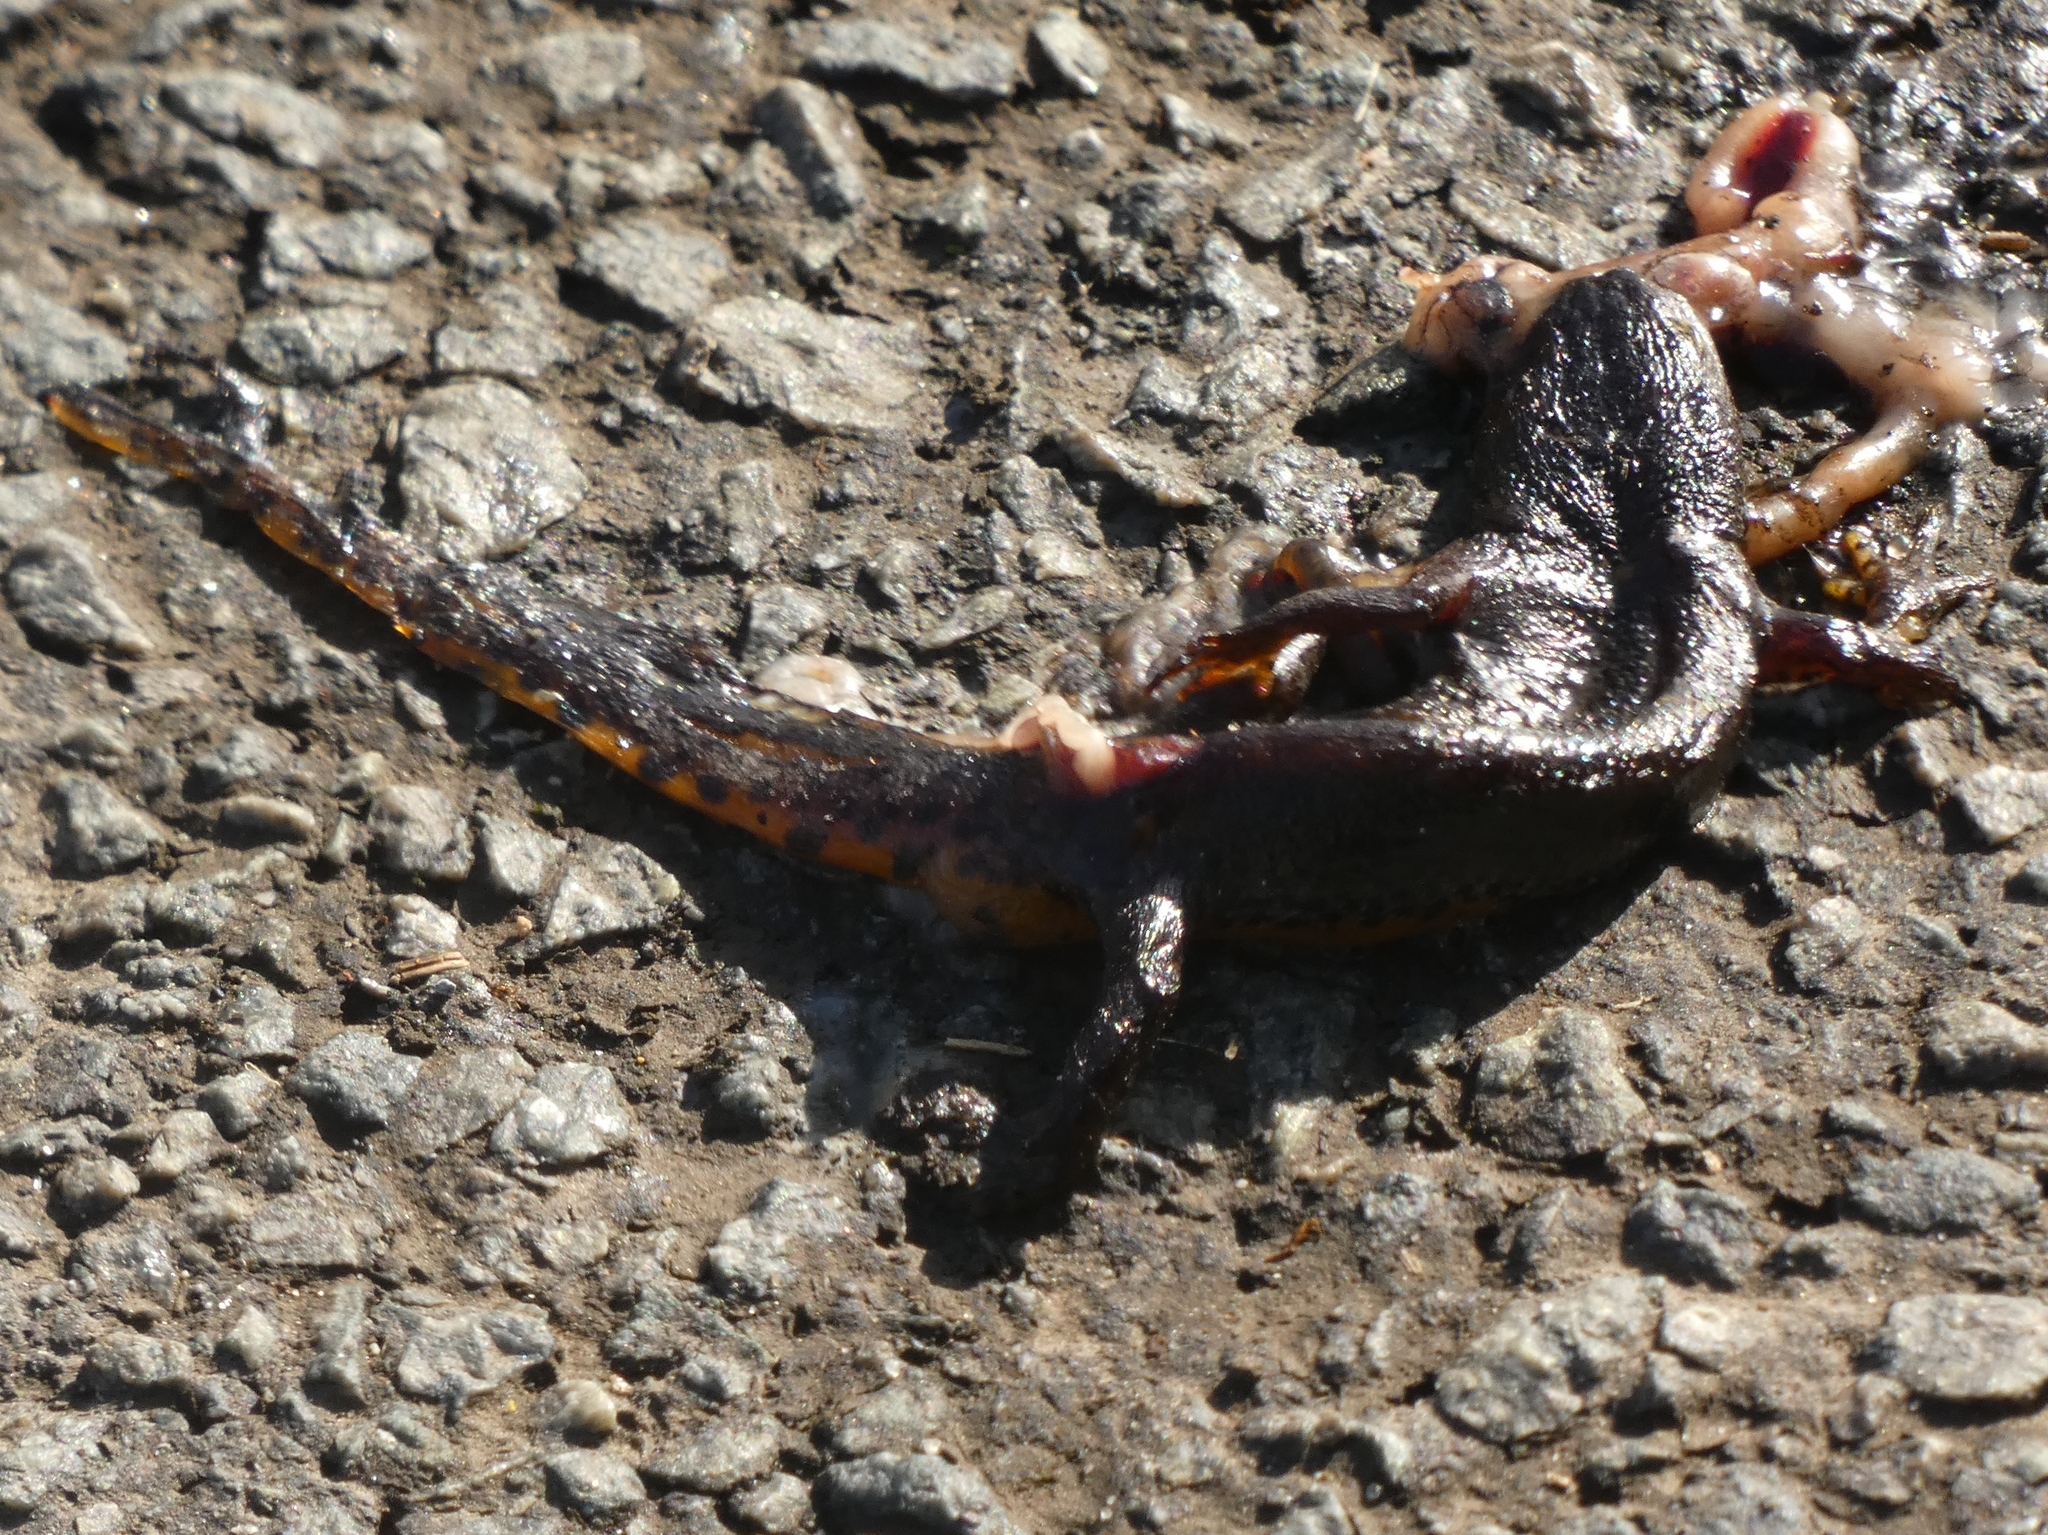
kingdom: Animalia
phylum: Chordata
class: Amphibia
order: Caudata
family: Salamandridae
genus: Triturus
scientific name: Triturus cristatus
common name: Crested newt
